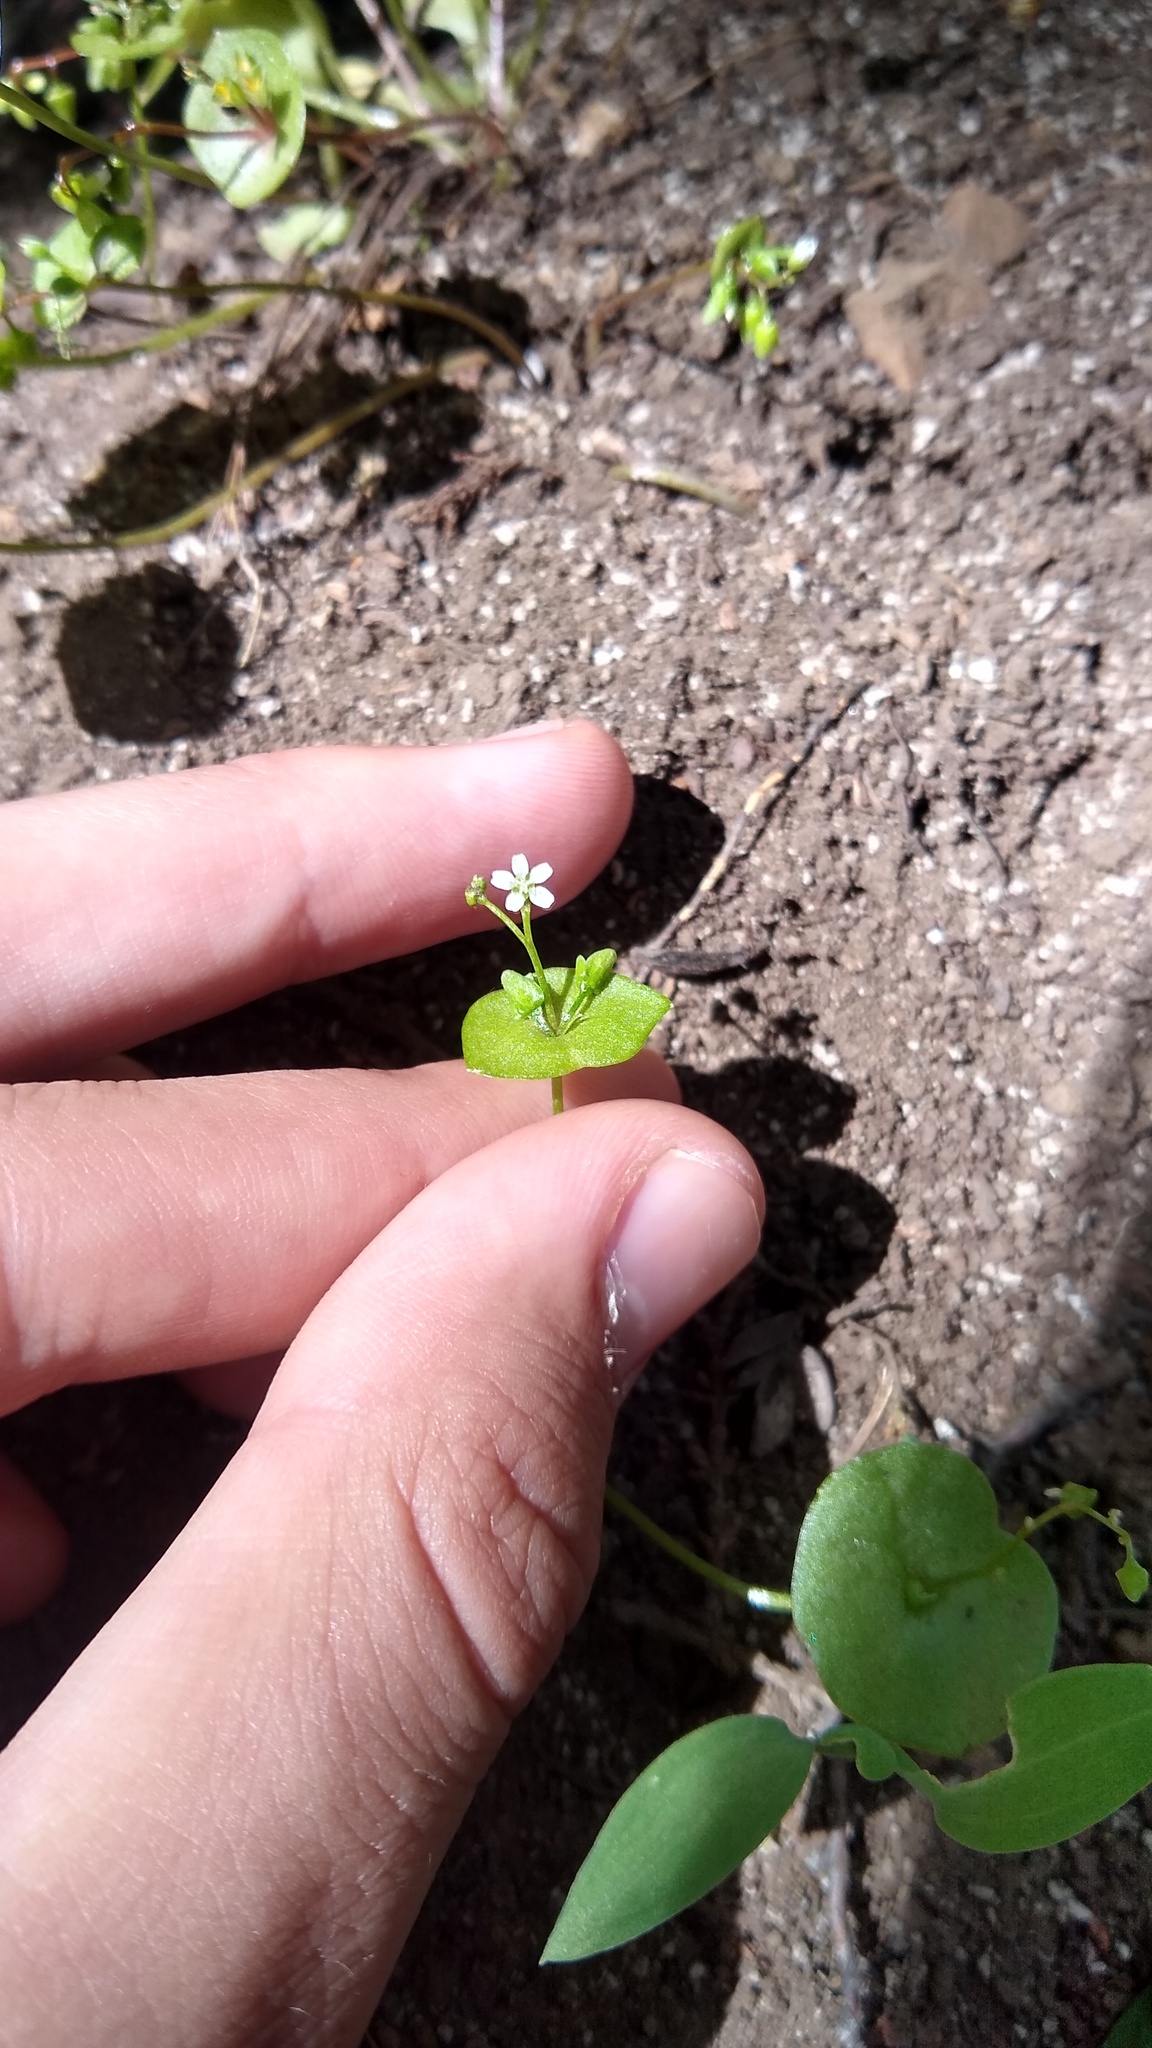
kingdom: Plantae
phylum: Tracheophyta
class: Magnoliopsida
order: Caryophyllales
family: Montiaceae
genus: Claytonia
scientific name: Claytonia perfoliata
